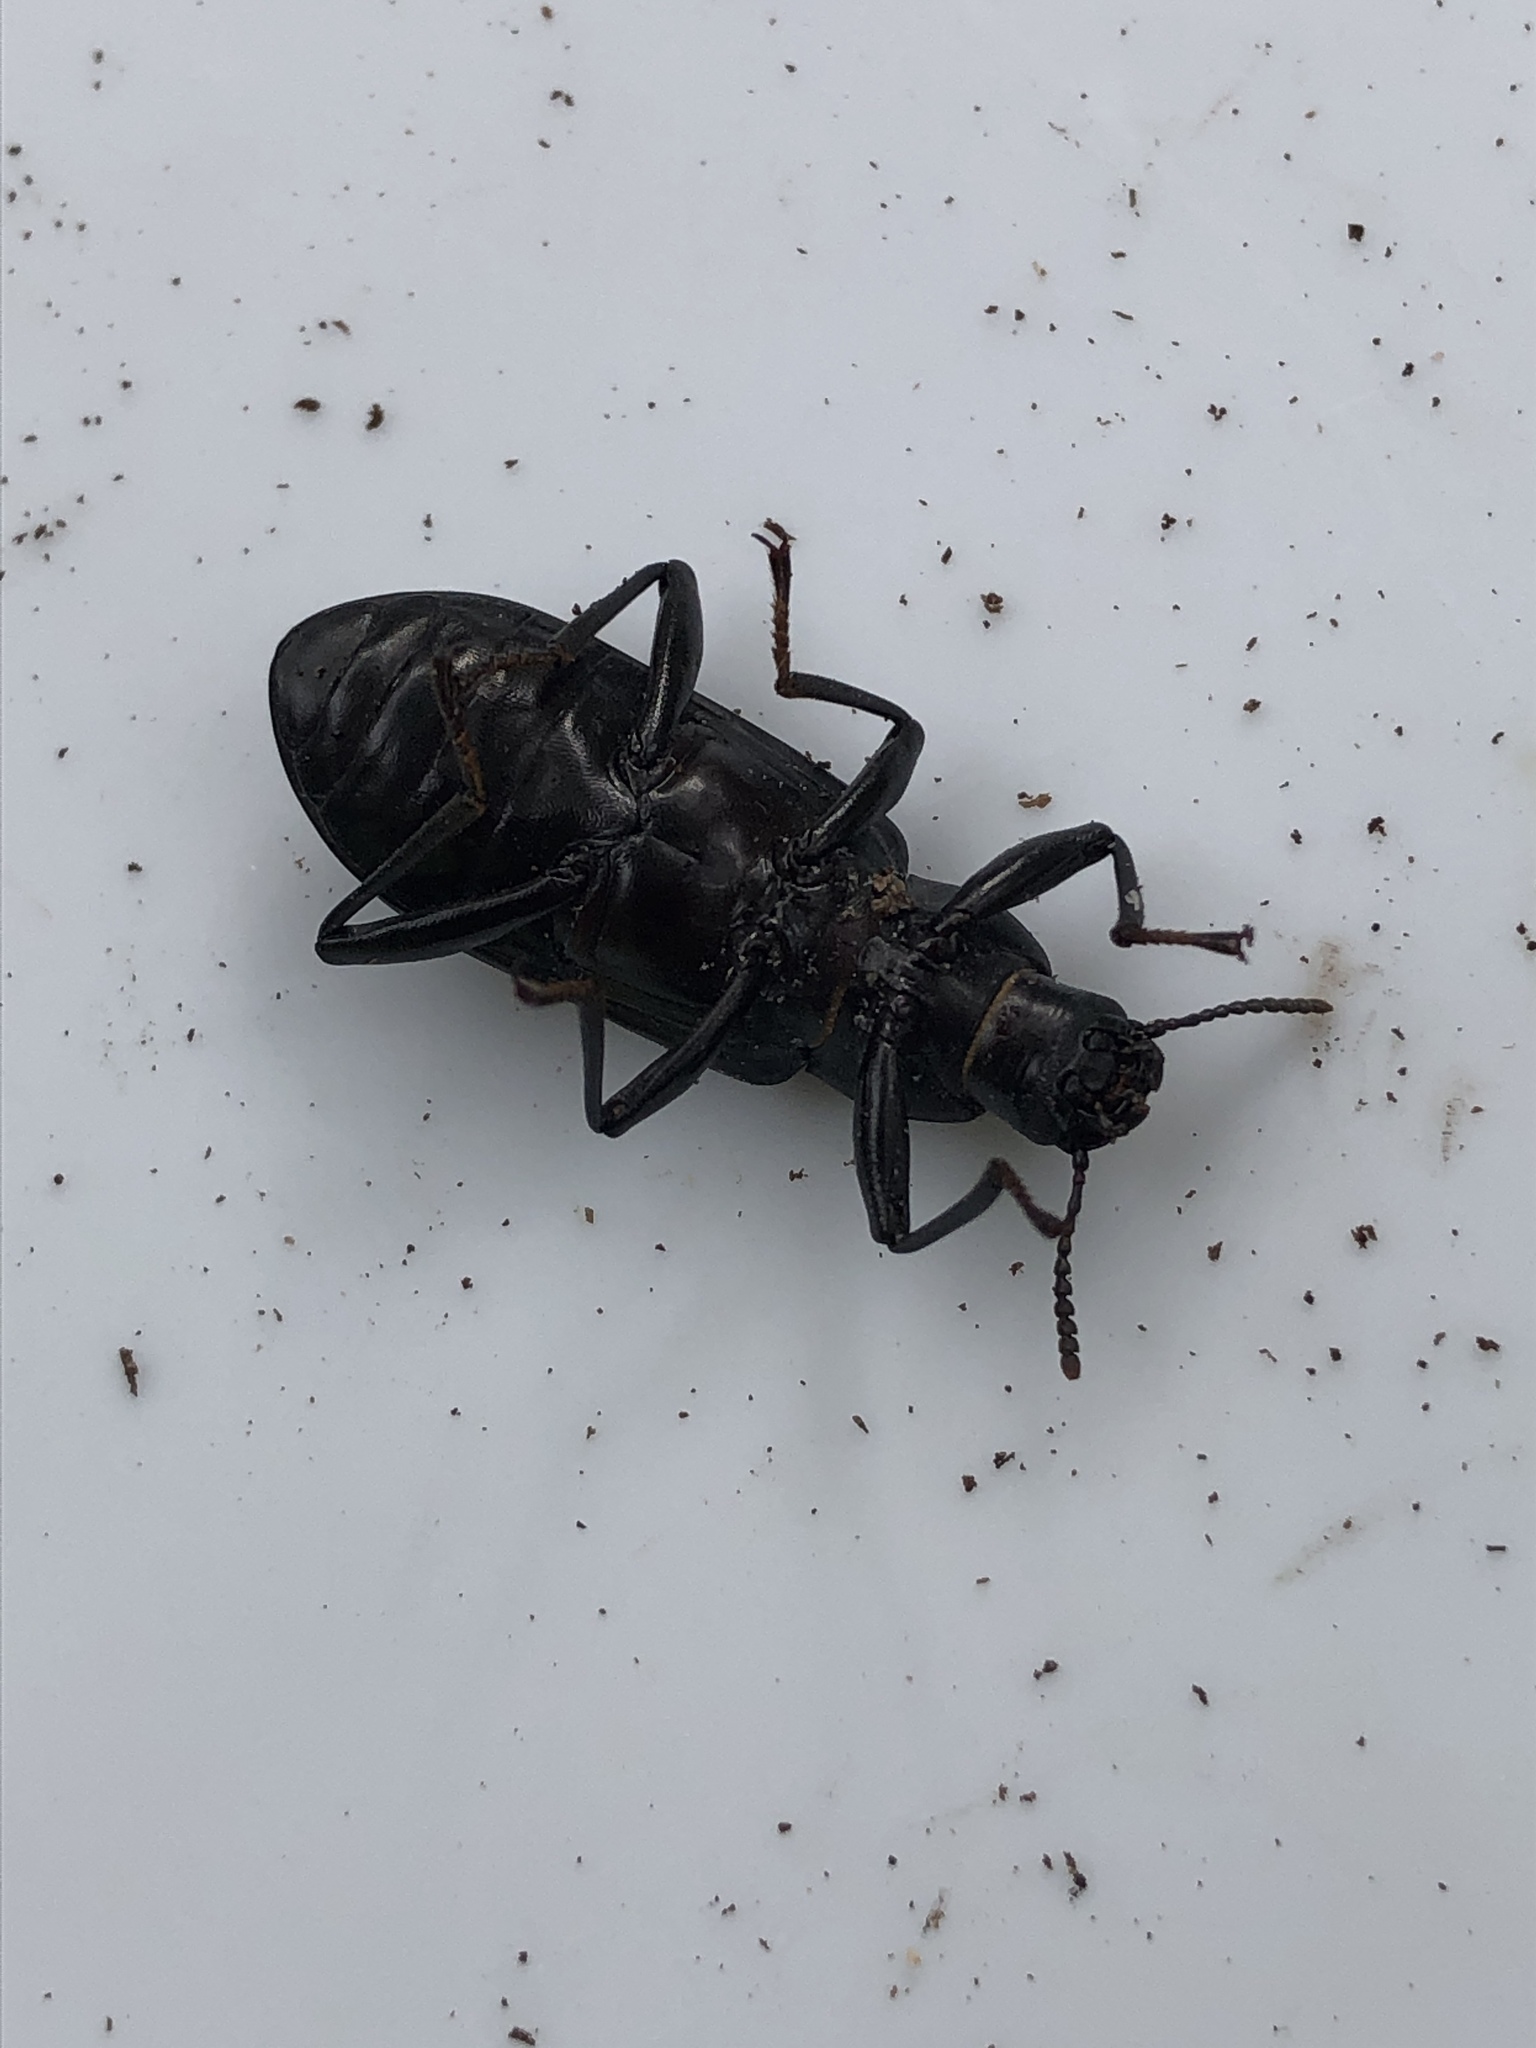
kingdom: Animalia
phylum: Arthropoda
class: Insecta
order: Coleoptera
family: Tenebrionidae
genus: Alobates
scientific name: Alobates pensylvanicus
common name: False mealworm beetle
